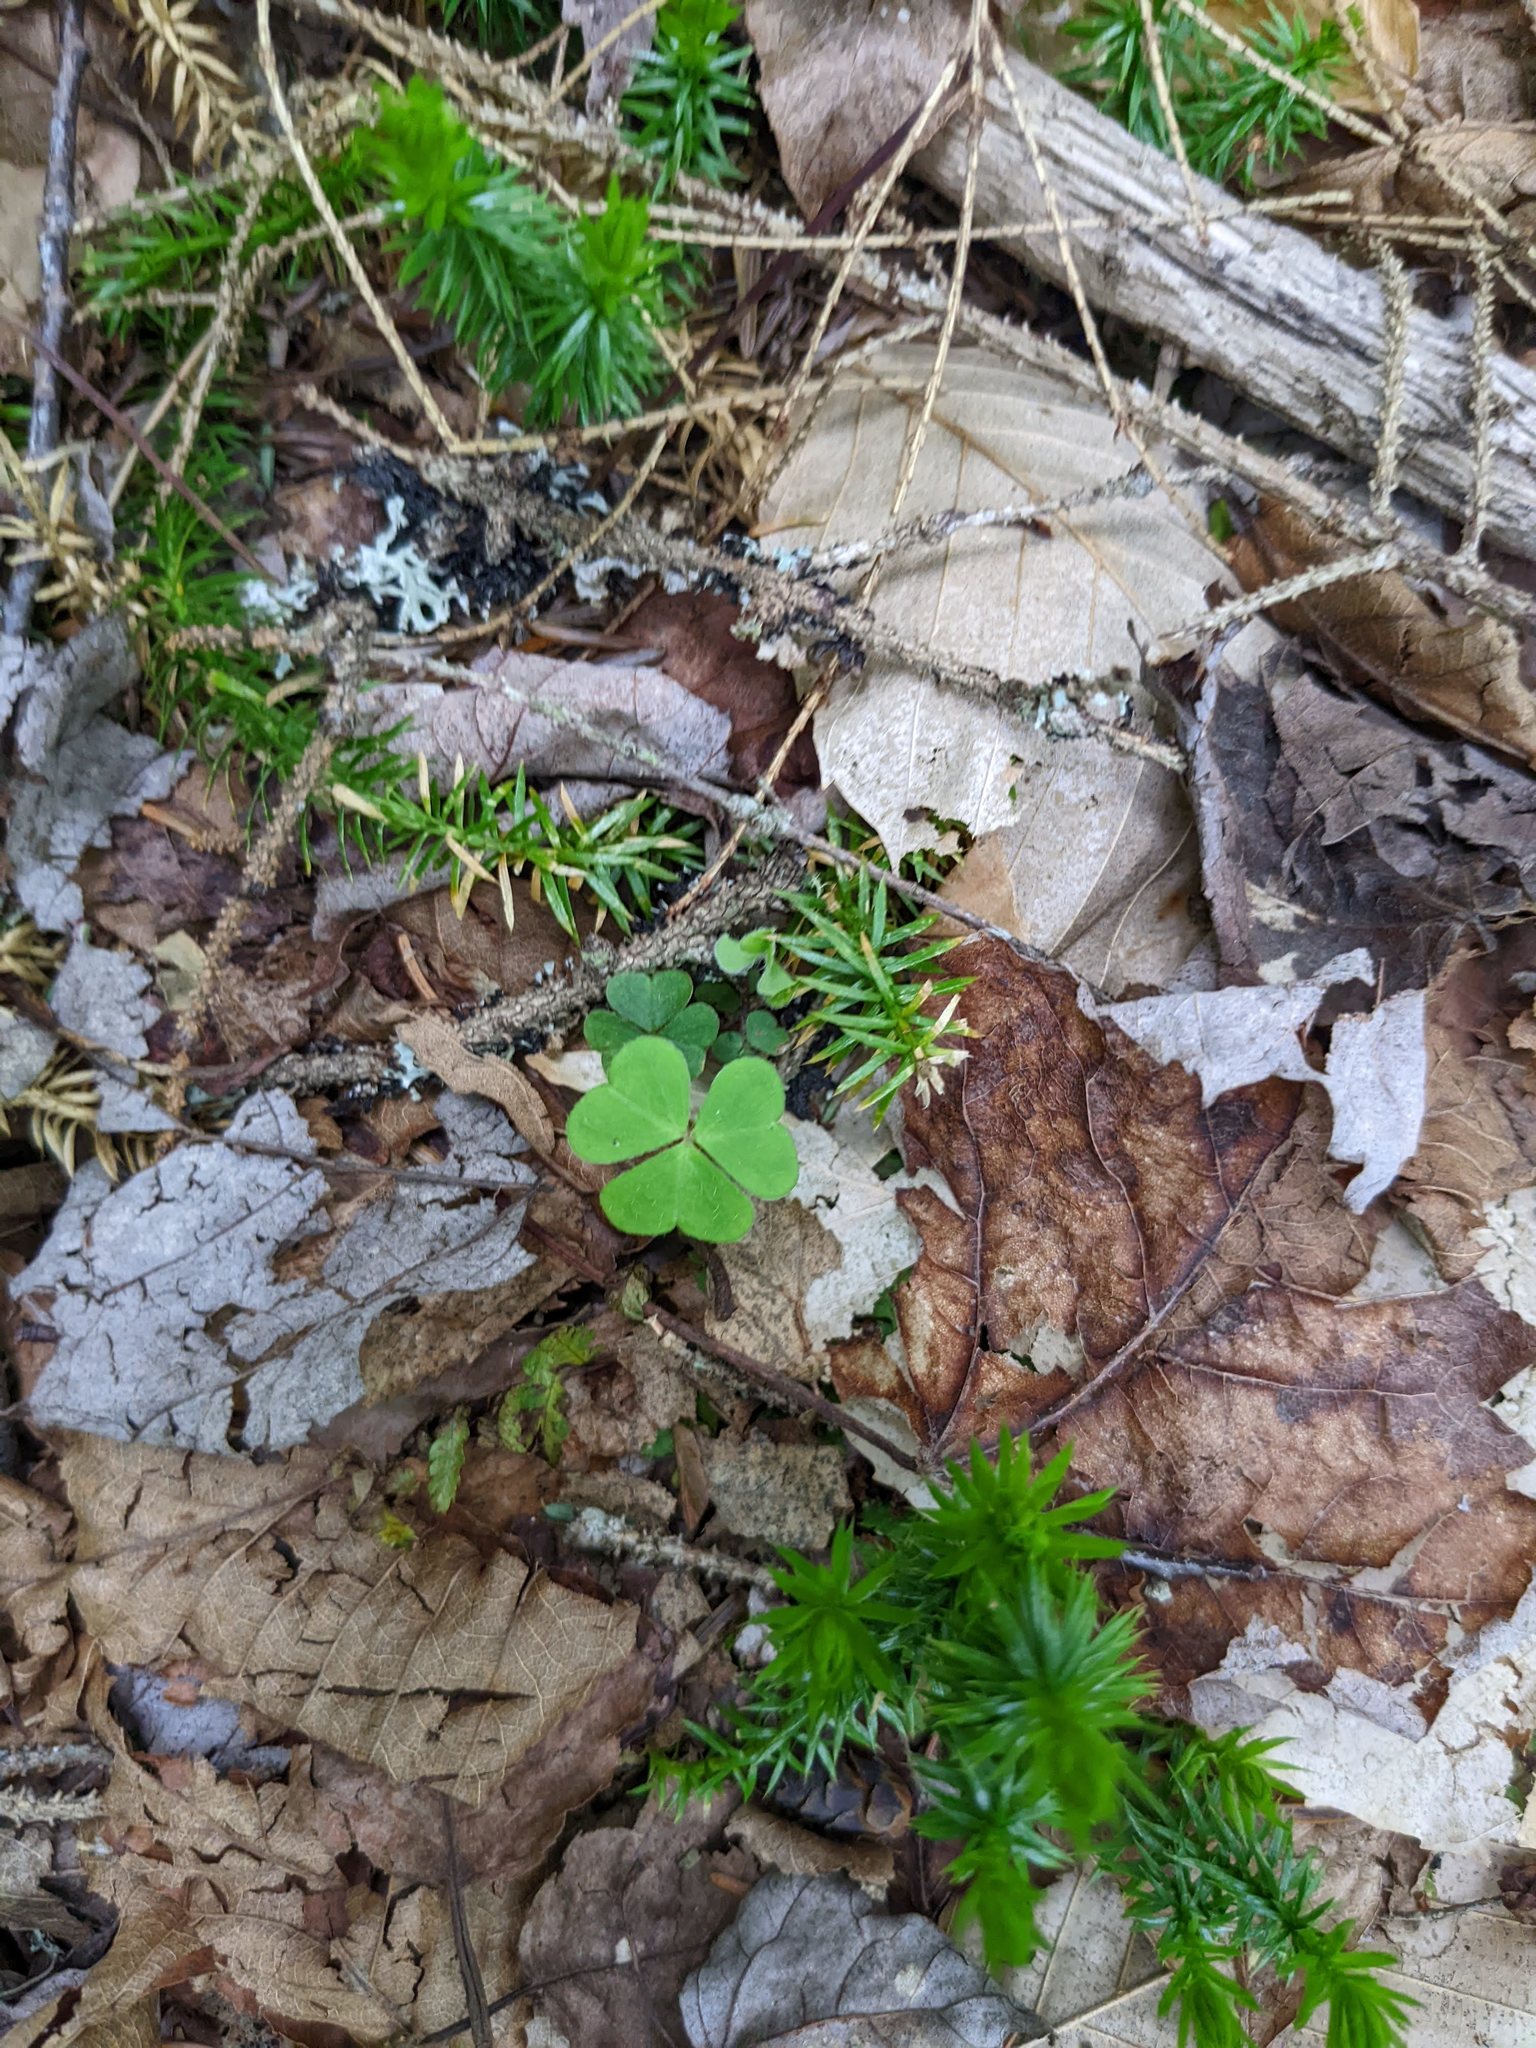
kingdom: Plantae
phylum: Tracheophyta
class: Magnoliopsida
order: Oxalidales
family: Oxalidaceae
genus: Oxalis
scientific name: Oxalis montana
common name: American wood-sorrel
